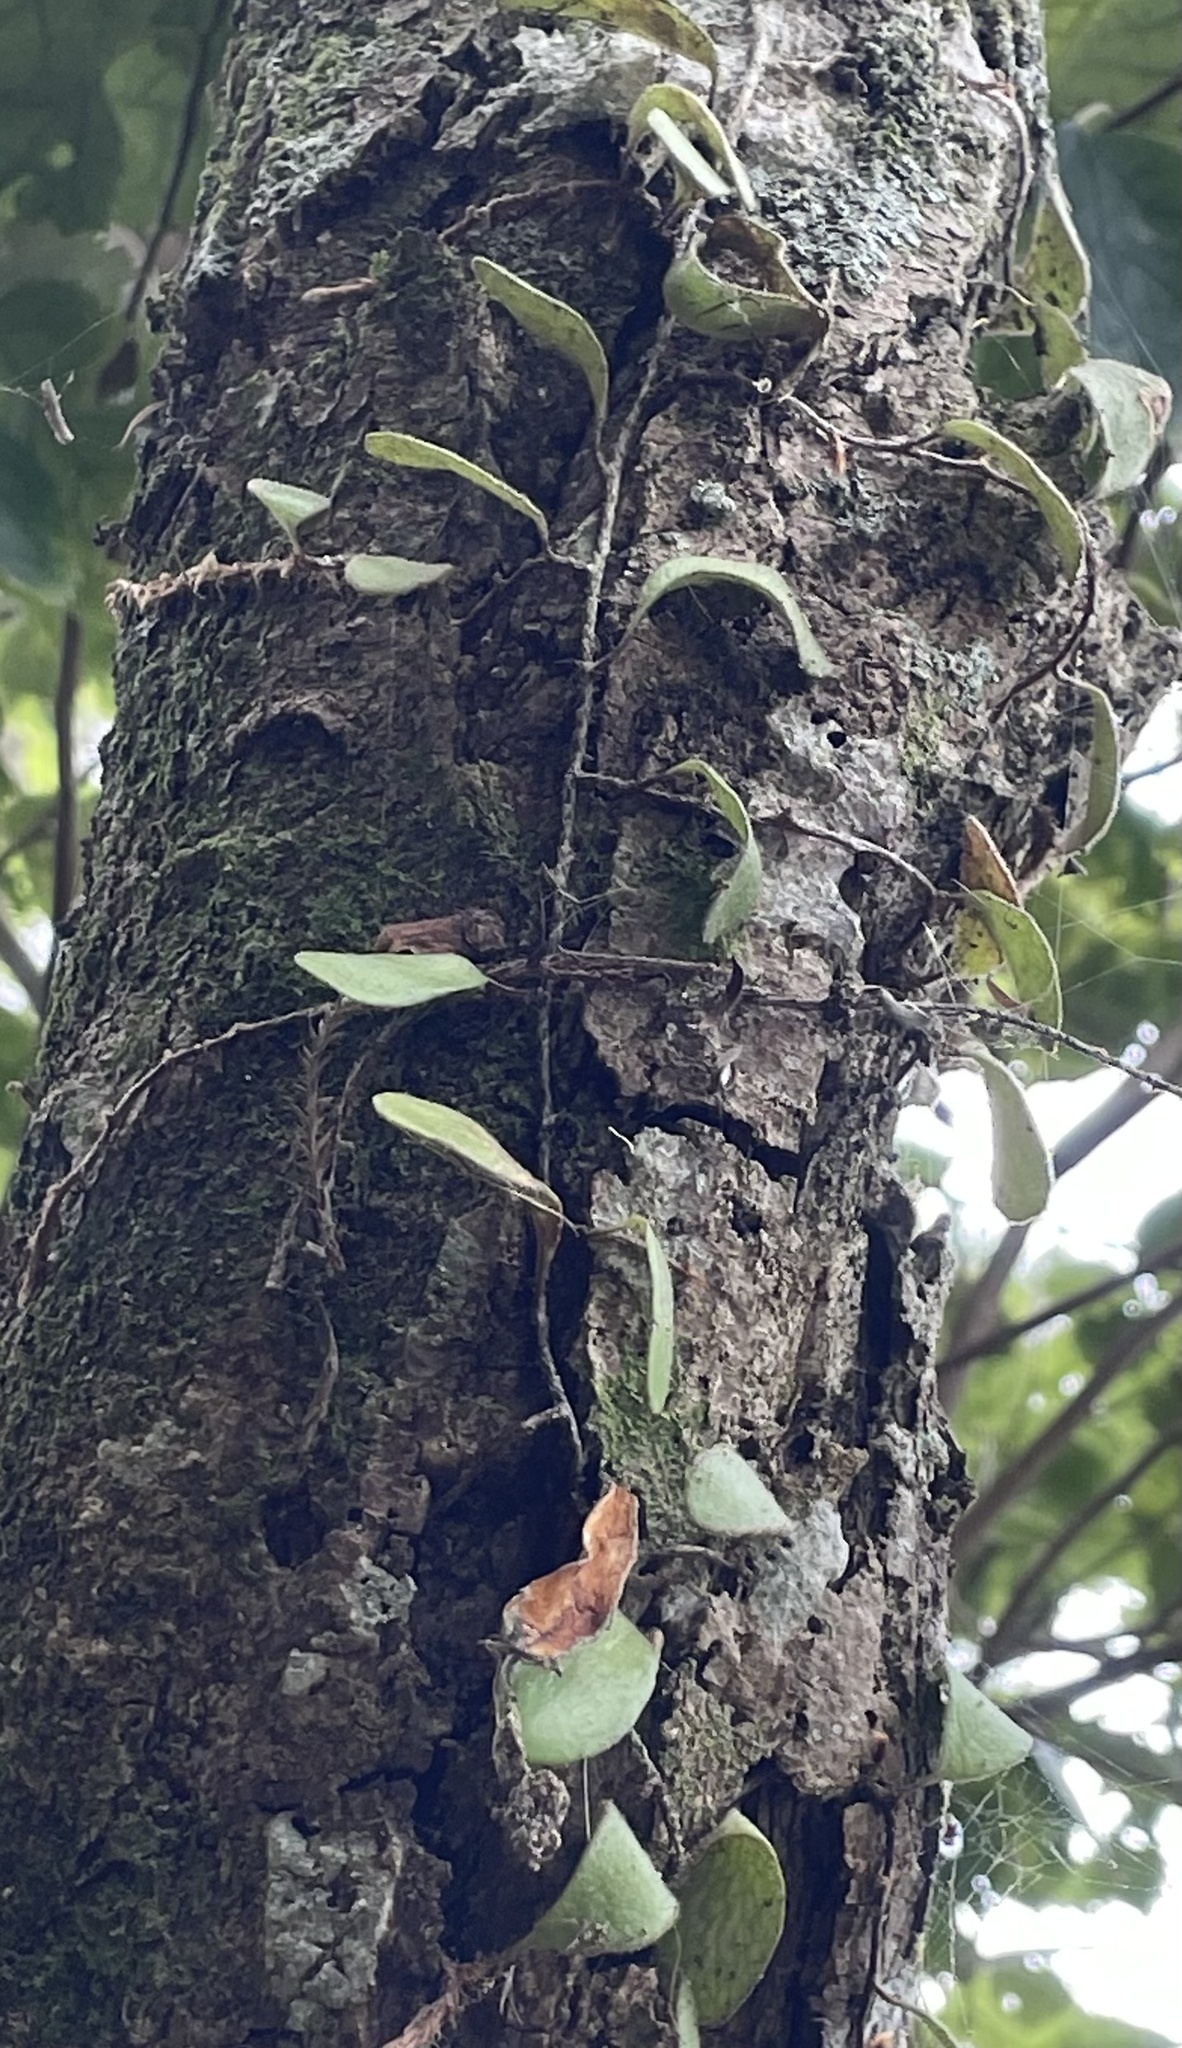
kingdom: Plantae
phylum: Tracheophyta
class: Polypodiopsida
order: Polypodiales
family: Polypodiaceae
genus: Pyrrosia
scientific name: Pyrrosia eleagnifolia
